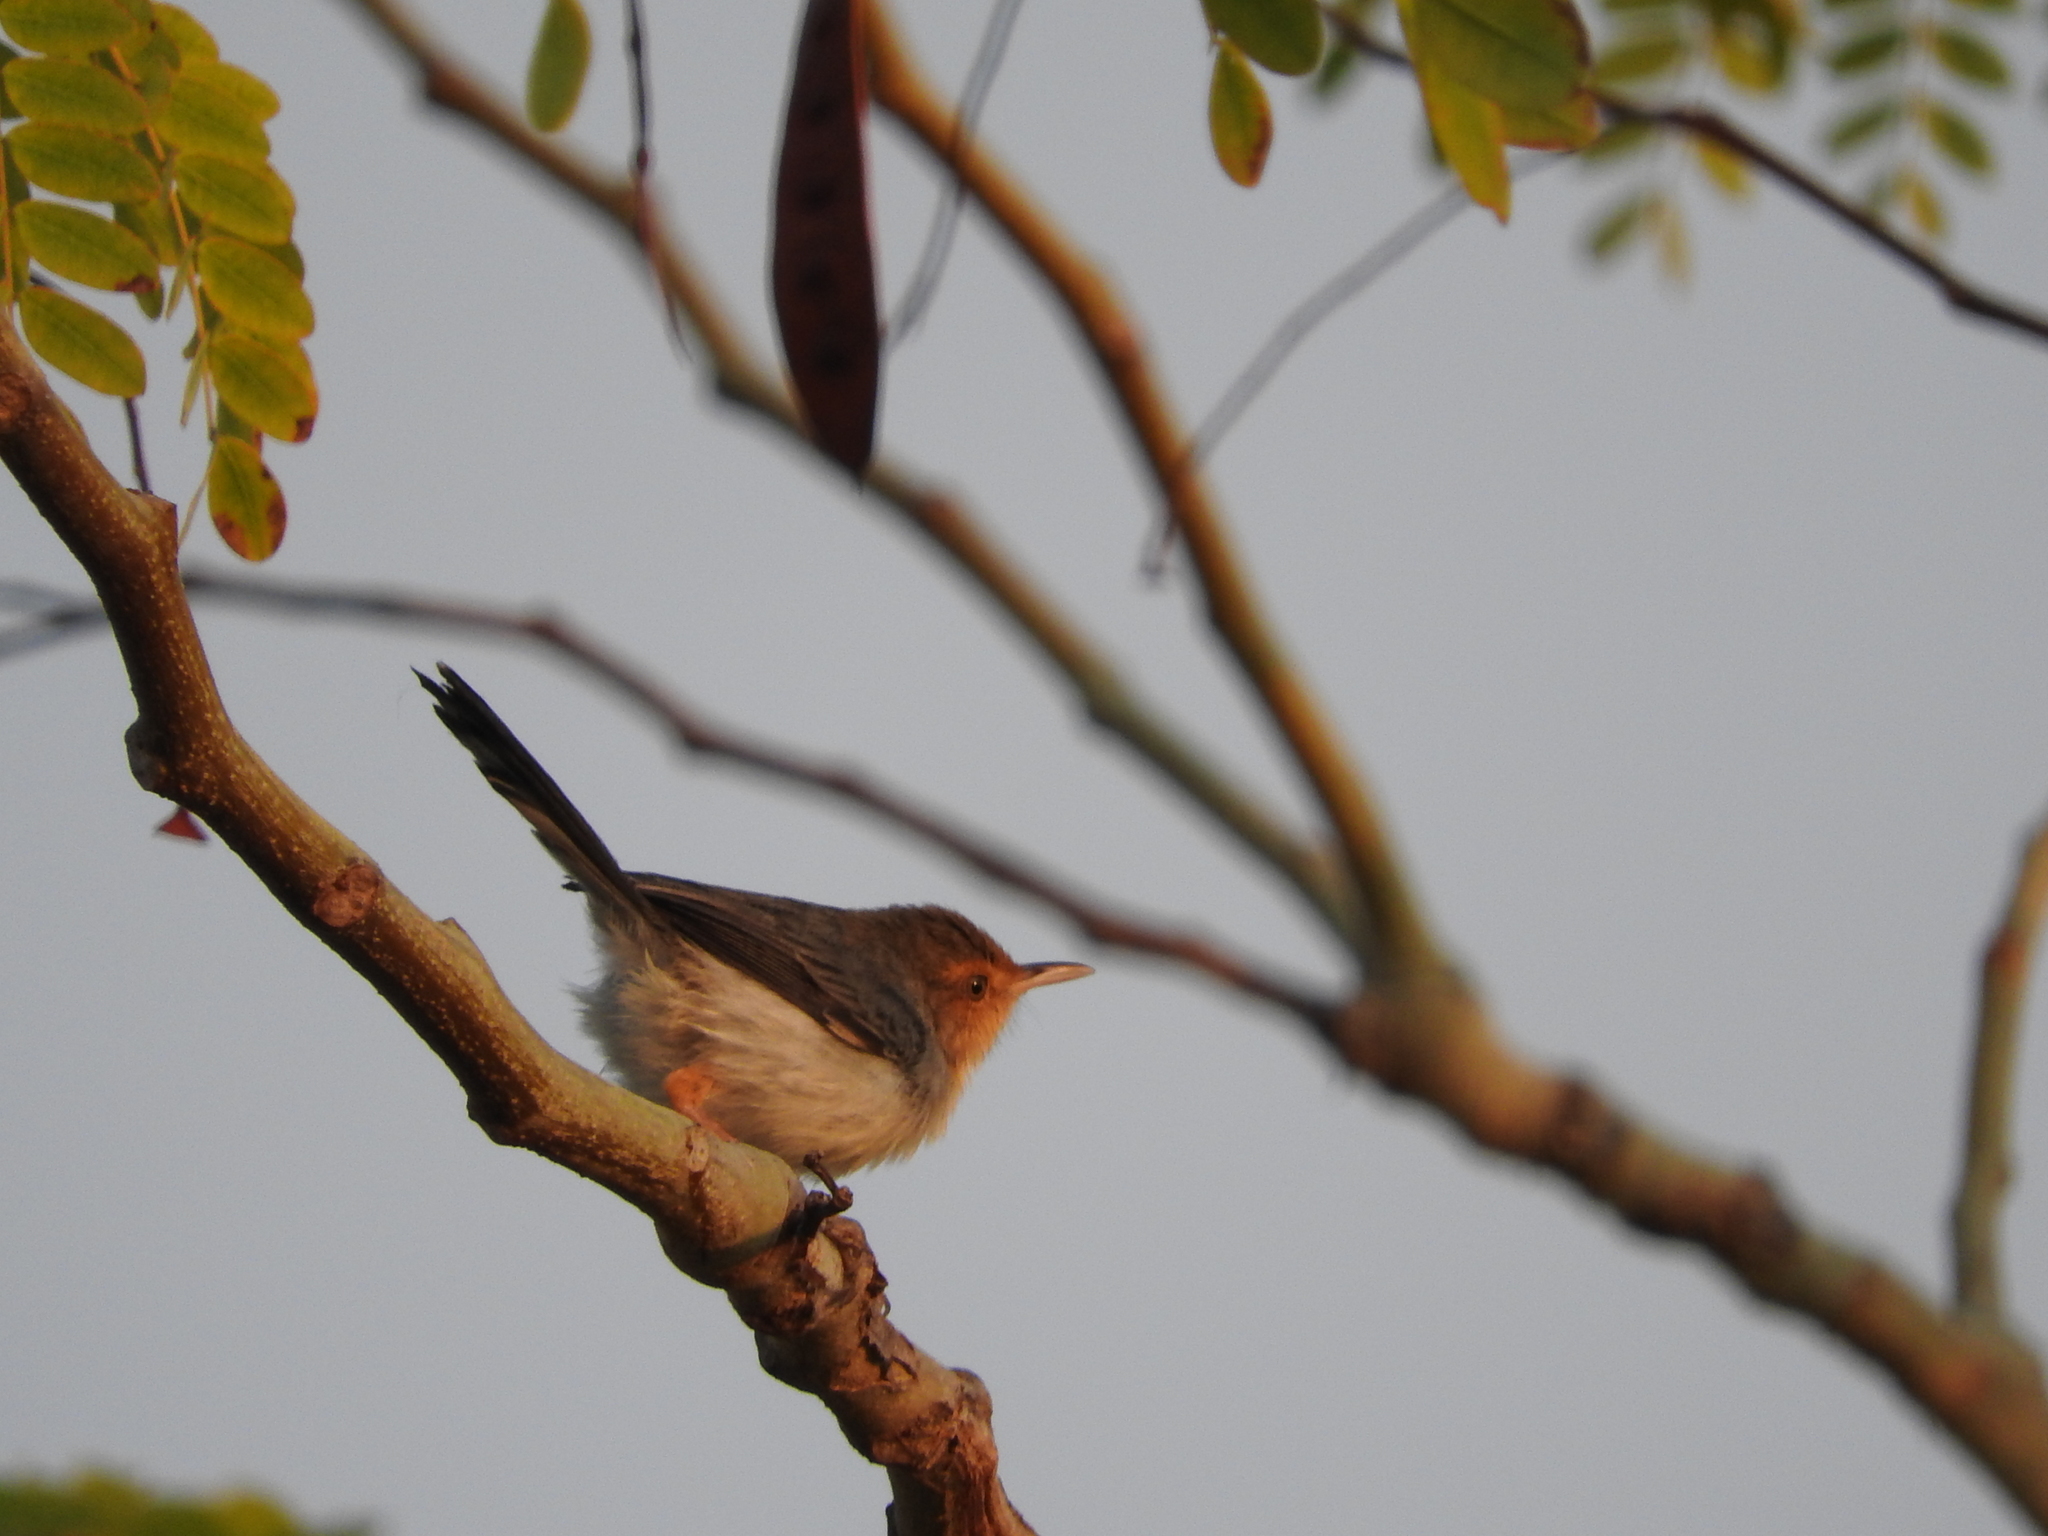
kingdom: Animalia
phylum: Chordata
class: Aves
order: Passeriformes
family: Cisticolidae
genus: Prinia
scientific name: Prinia molleri
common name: Sao tome prinia
